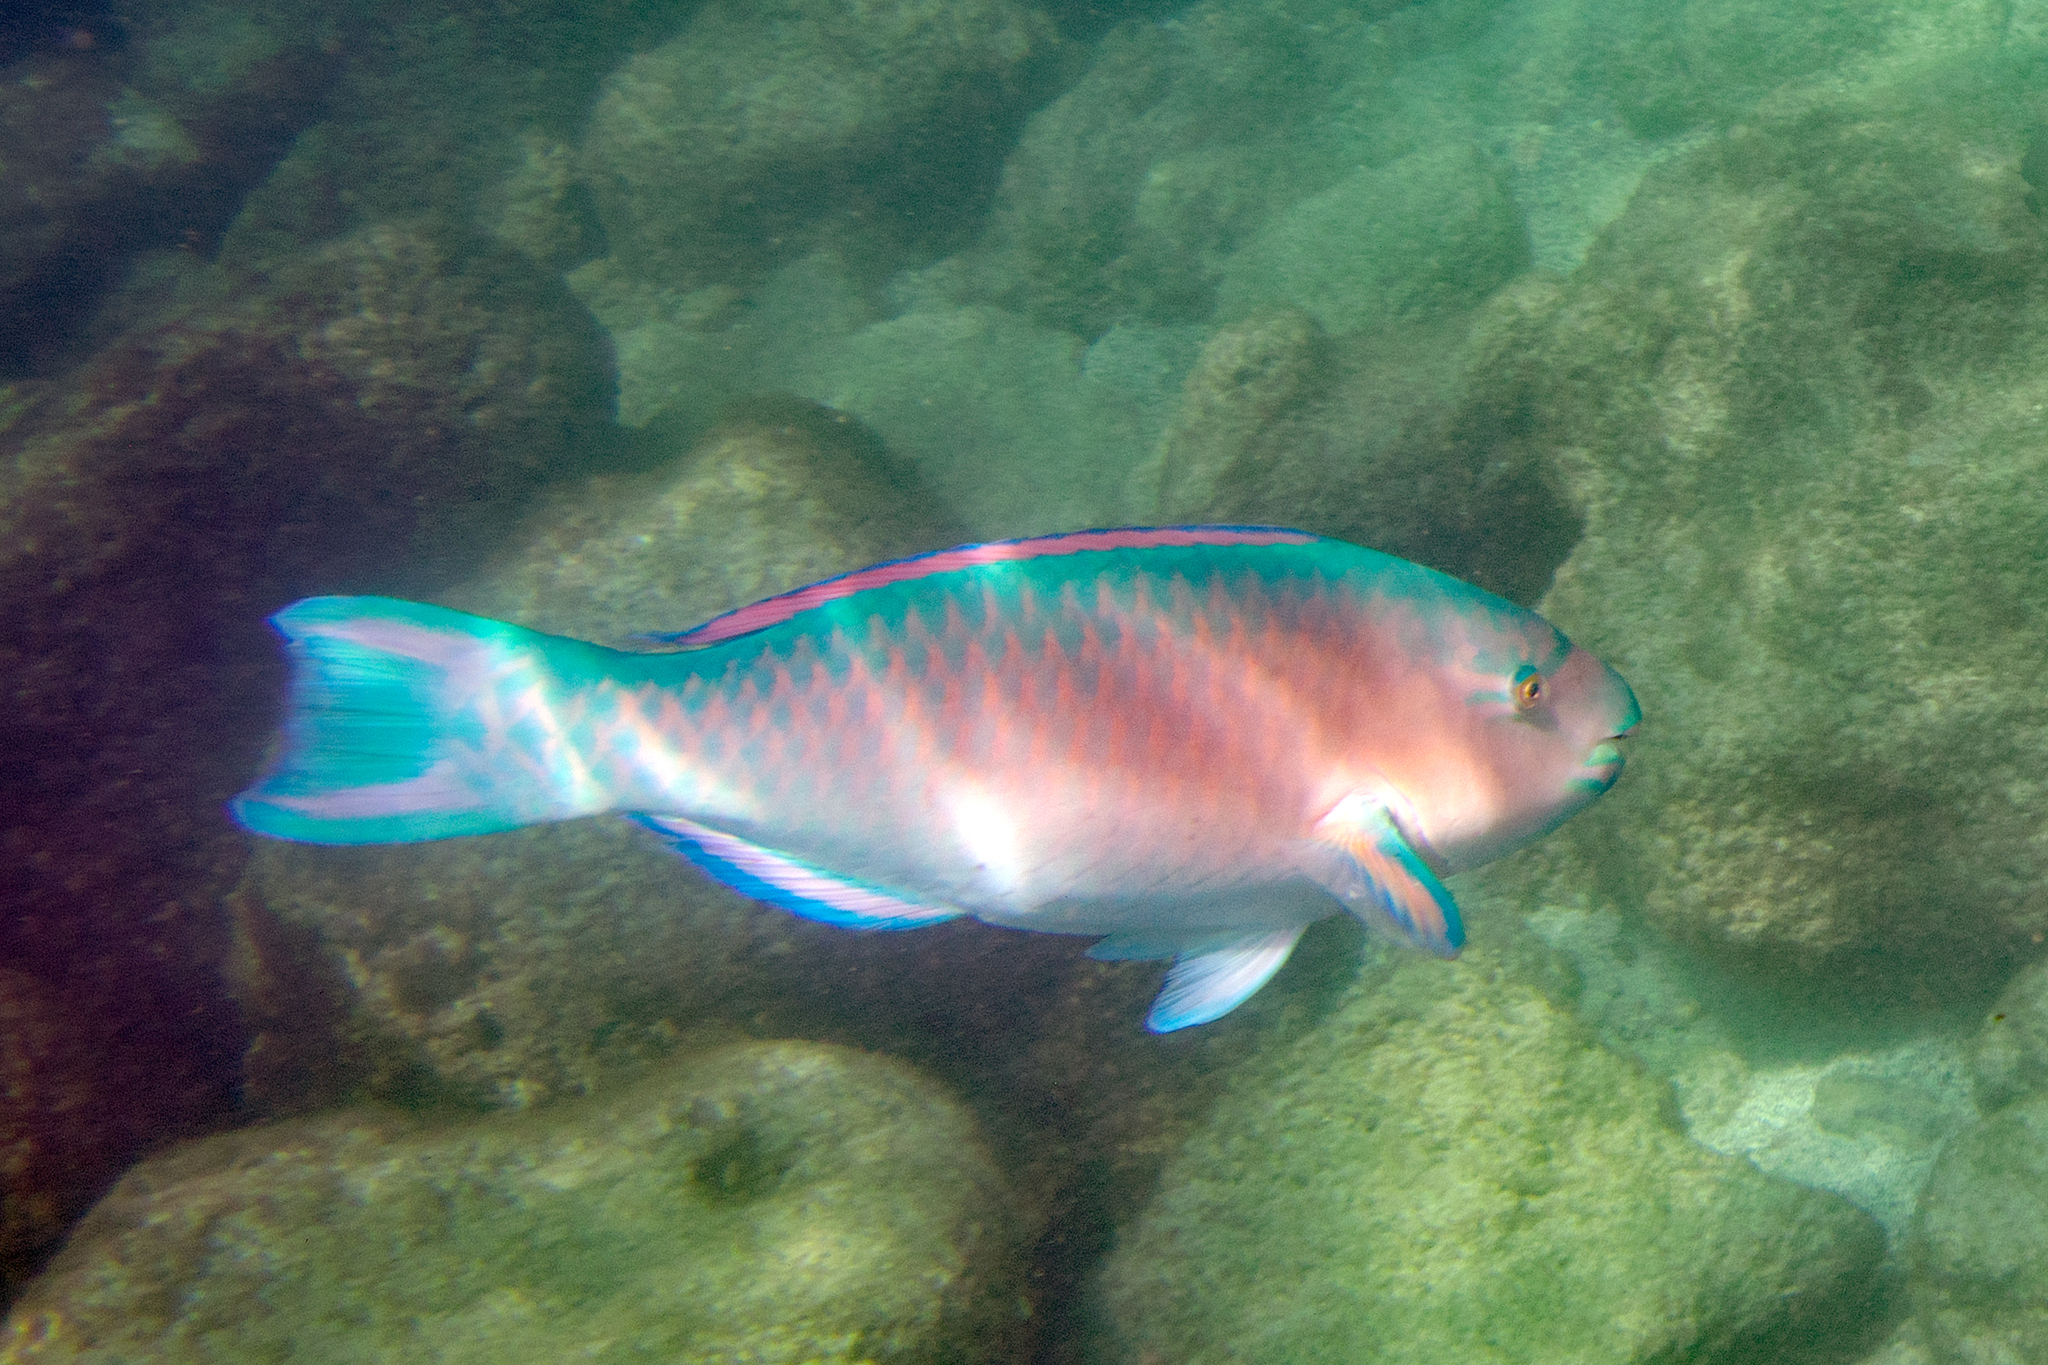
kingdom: Animalia
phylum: Chordata
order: Perciformes
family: Scaridae
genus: Scarus
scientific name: Scarus ghobban
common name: Blue-barred parrotfish
